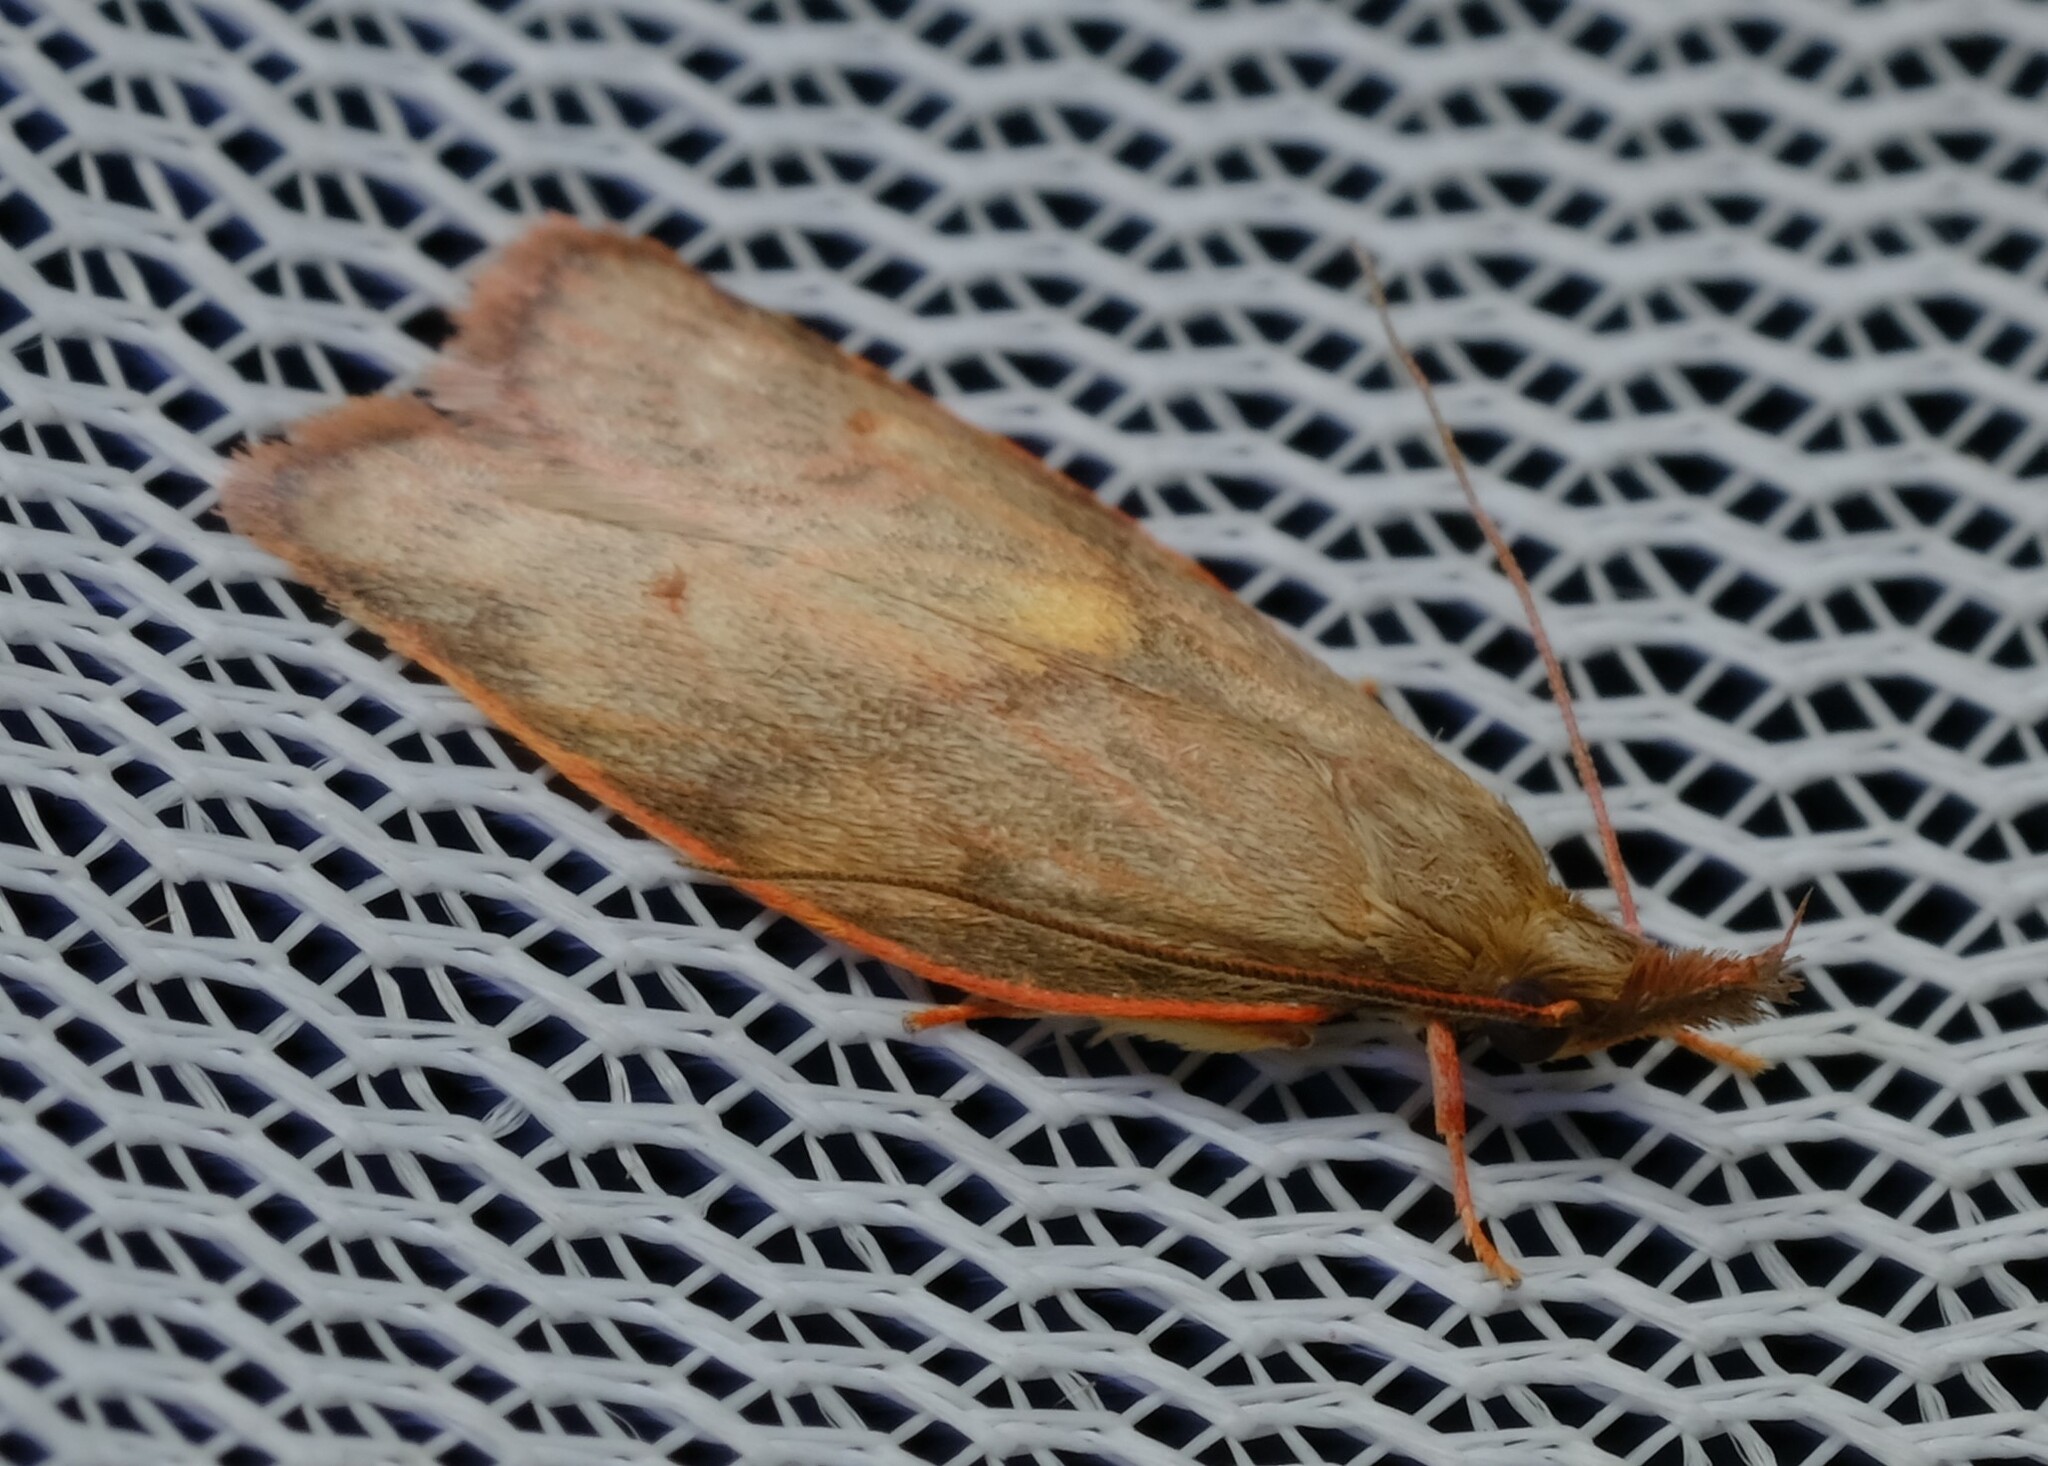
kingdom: Animalia
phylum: Arthropoda
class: Insecta
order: Lepidoptera
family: Depressariidae
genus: Enchocrates
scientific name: Enchocrates glaucopis
